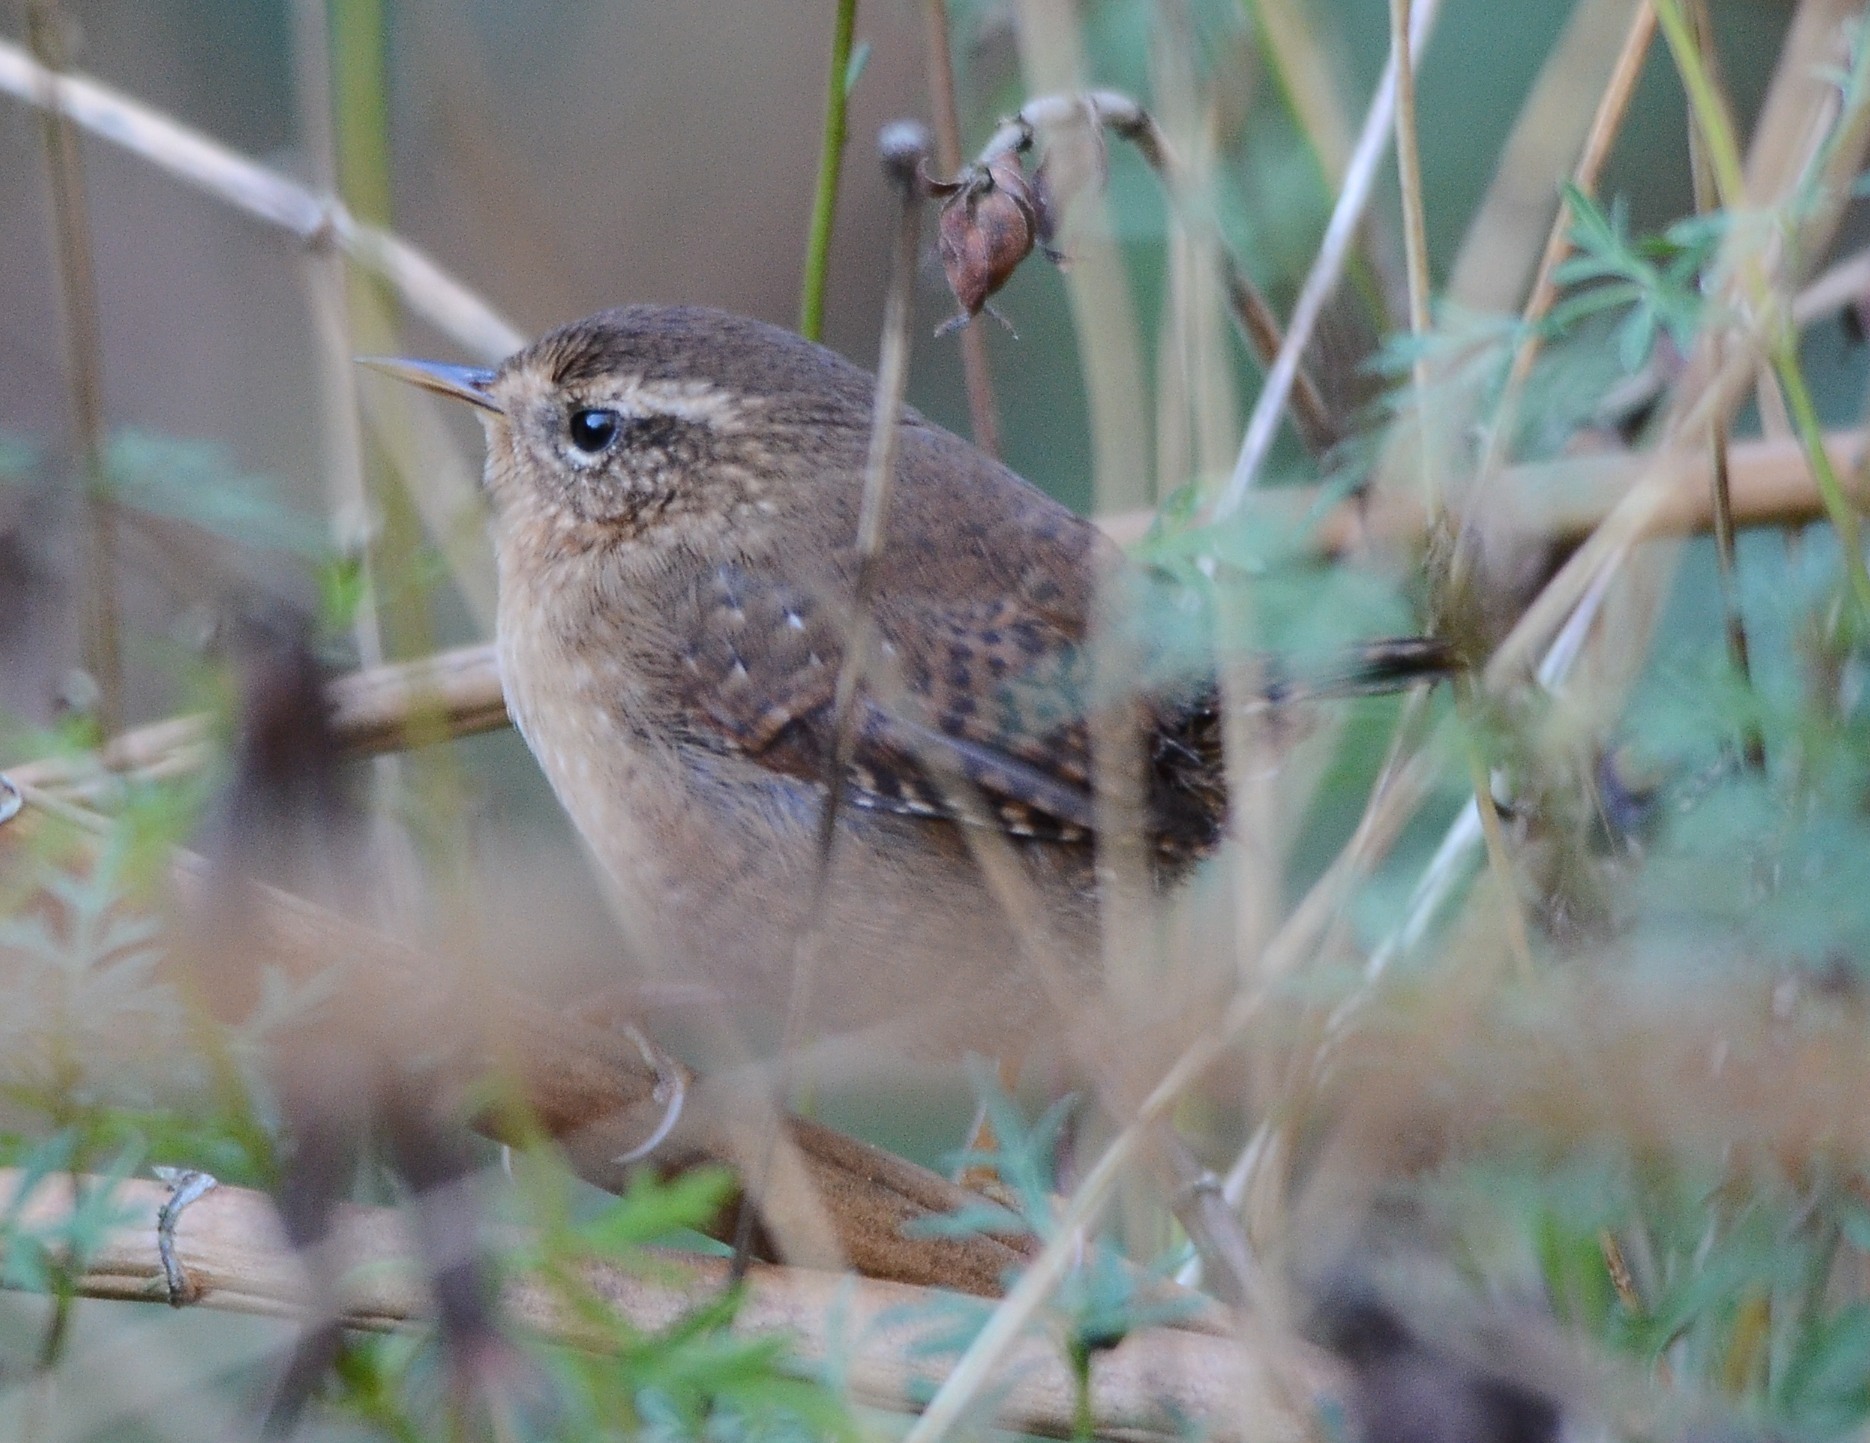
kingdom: Animalia
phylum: Chordata
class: Aves
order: Passeriformes
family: Troglodytidae
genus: Troglodytes
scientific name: Troglodytes pacificus
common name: Pacific wren
